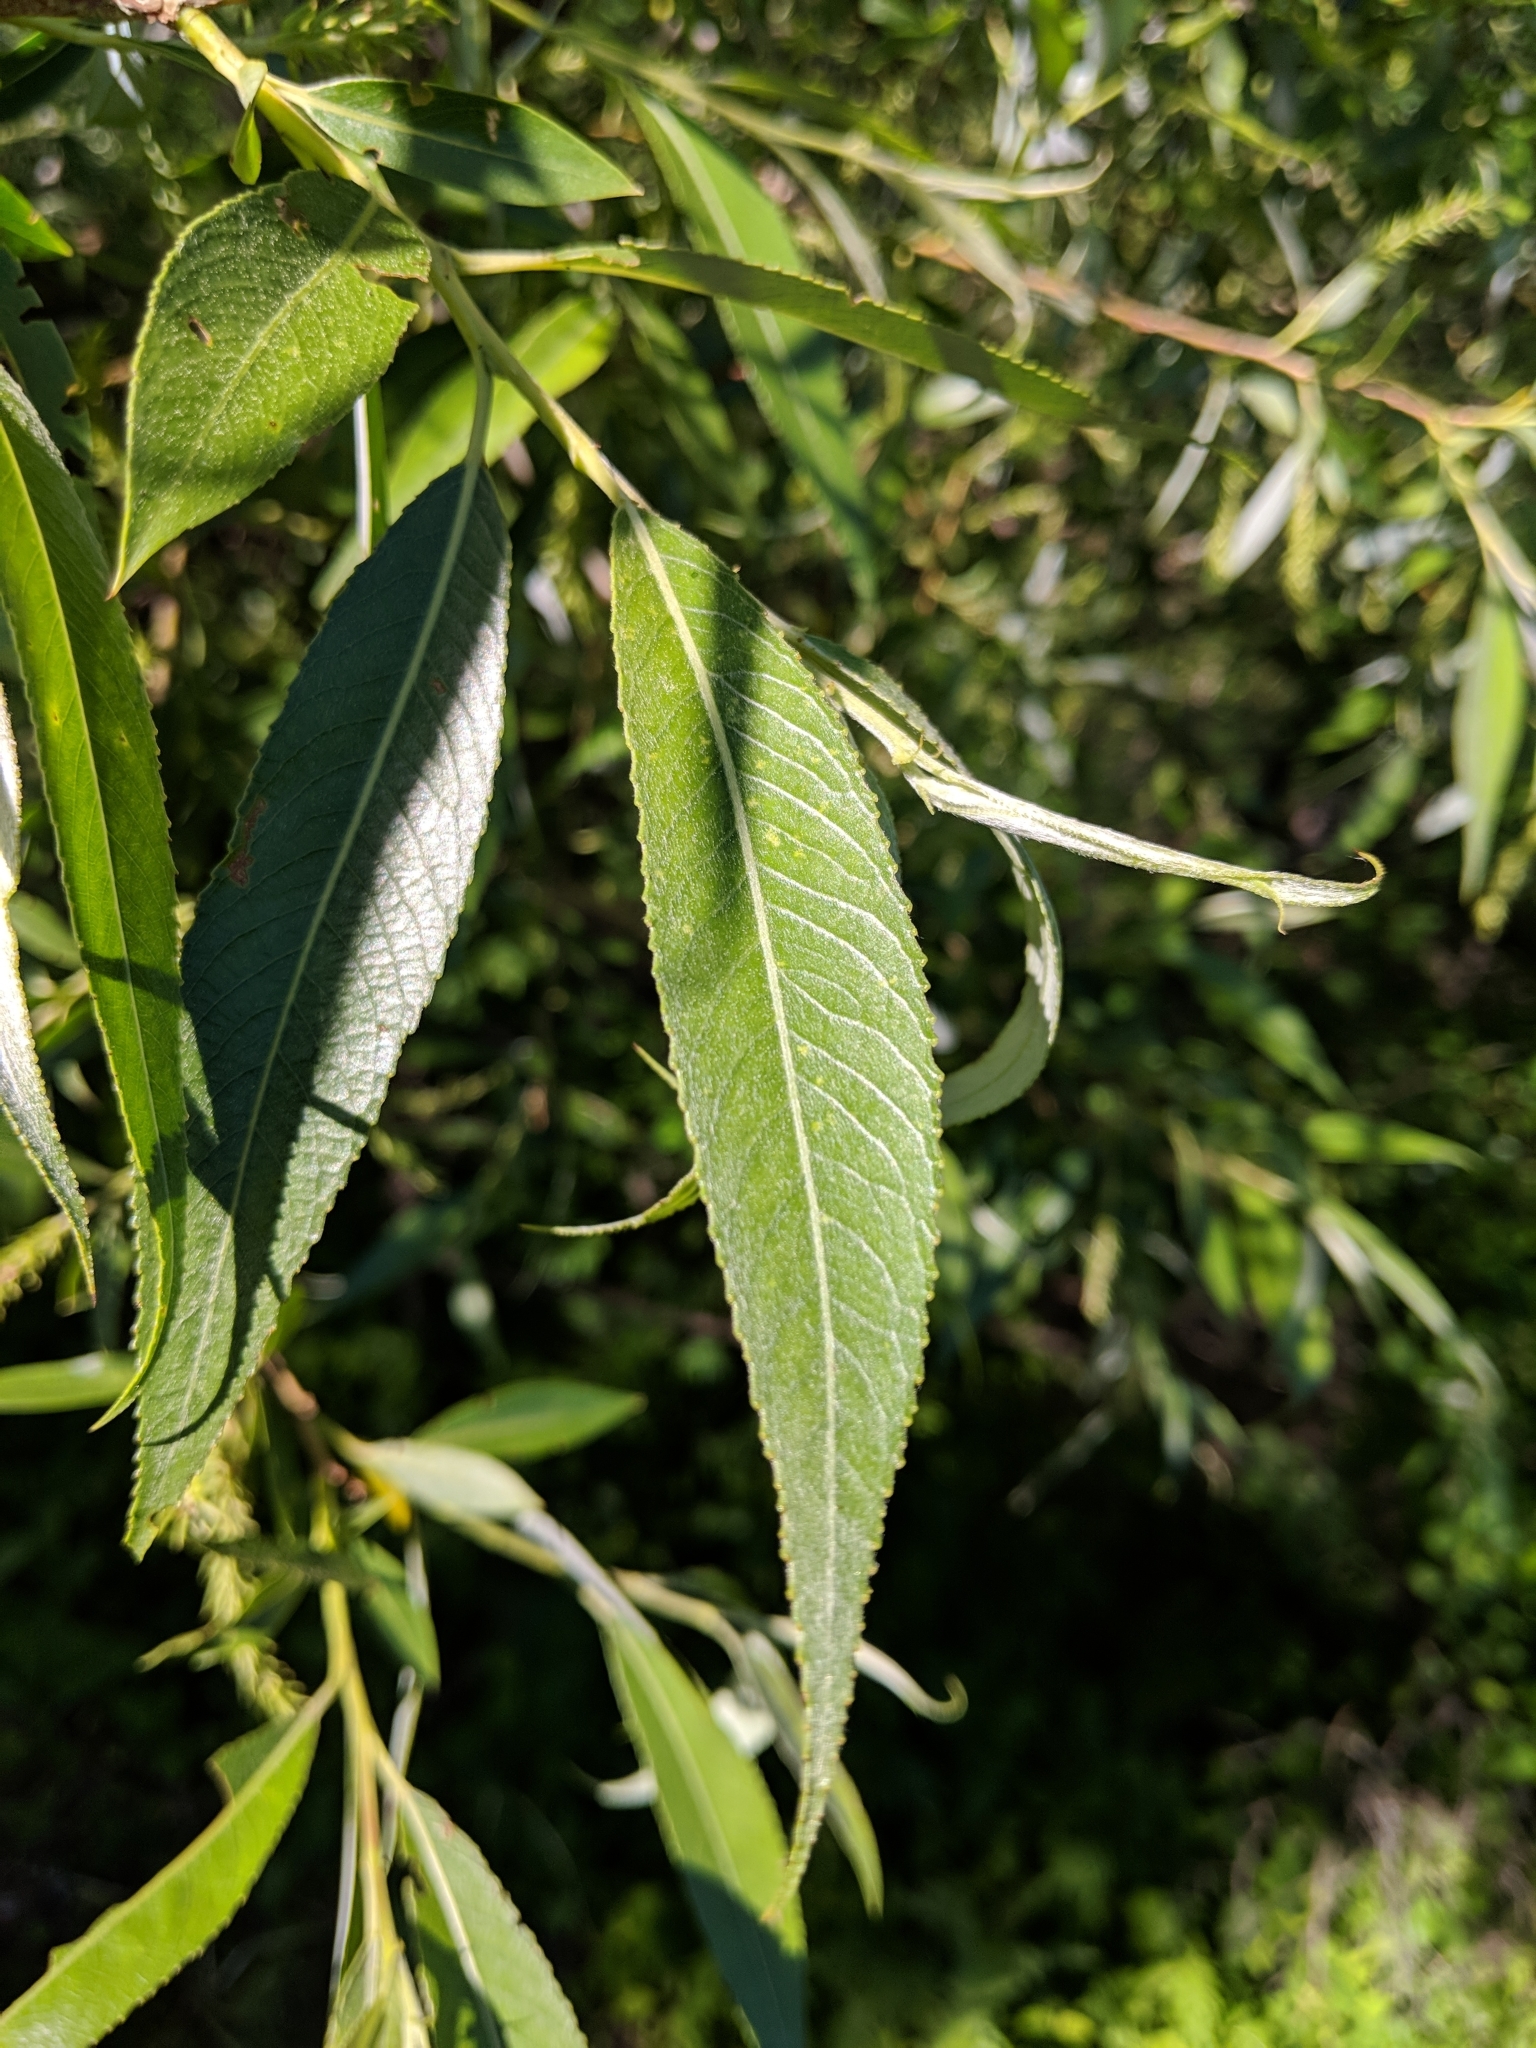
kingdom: Plantae
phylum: Tracheophyta
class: Magnoliopsida
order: Malpighiales
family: Salicaceae
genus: Salix
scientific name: Salix alba
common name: White willow
